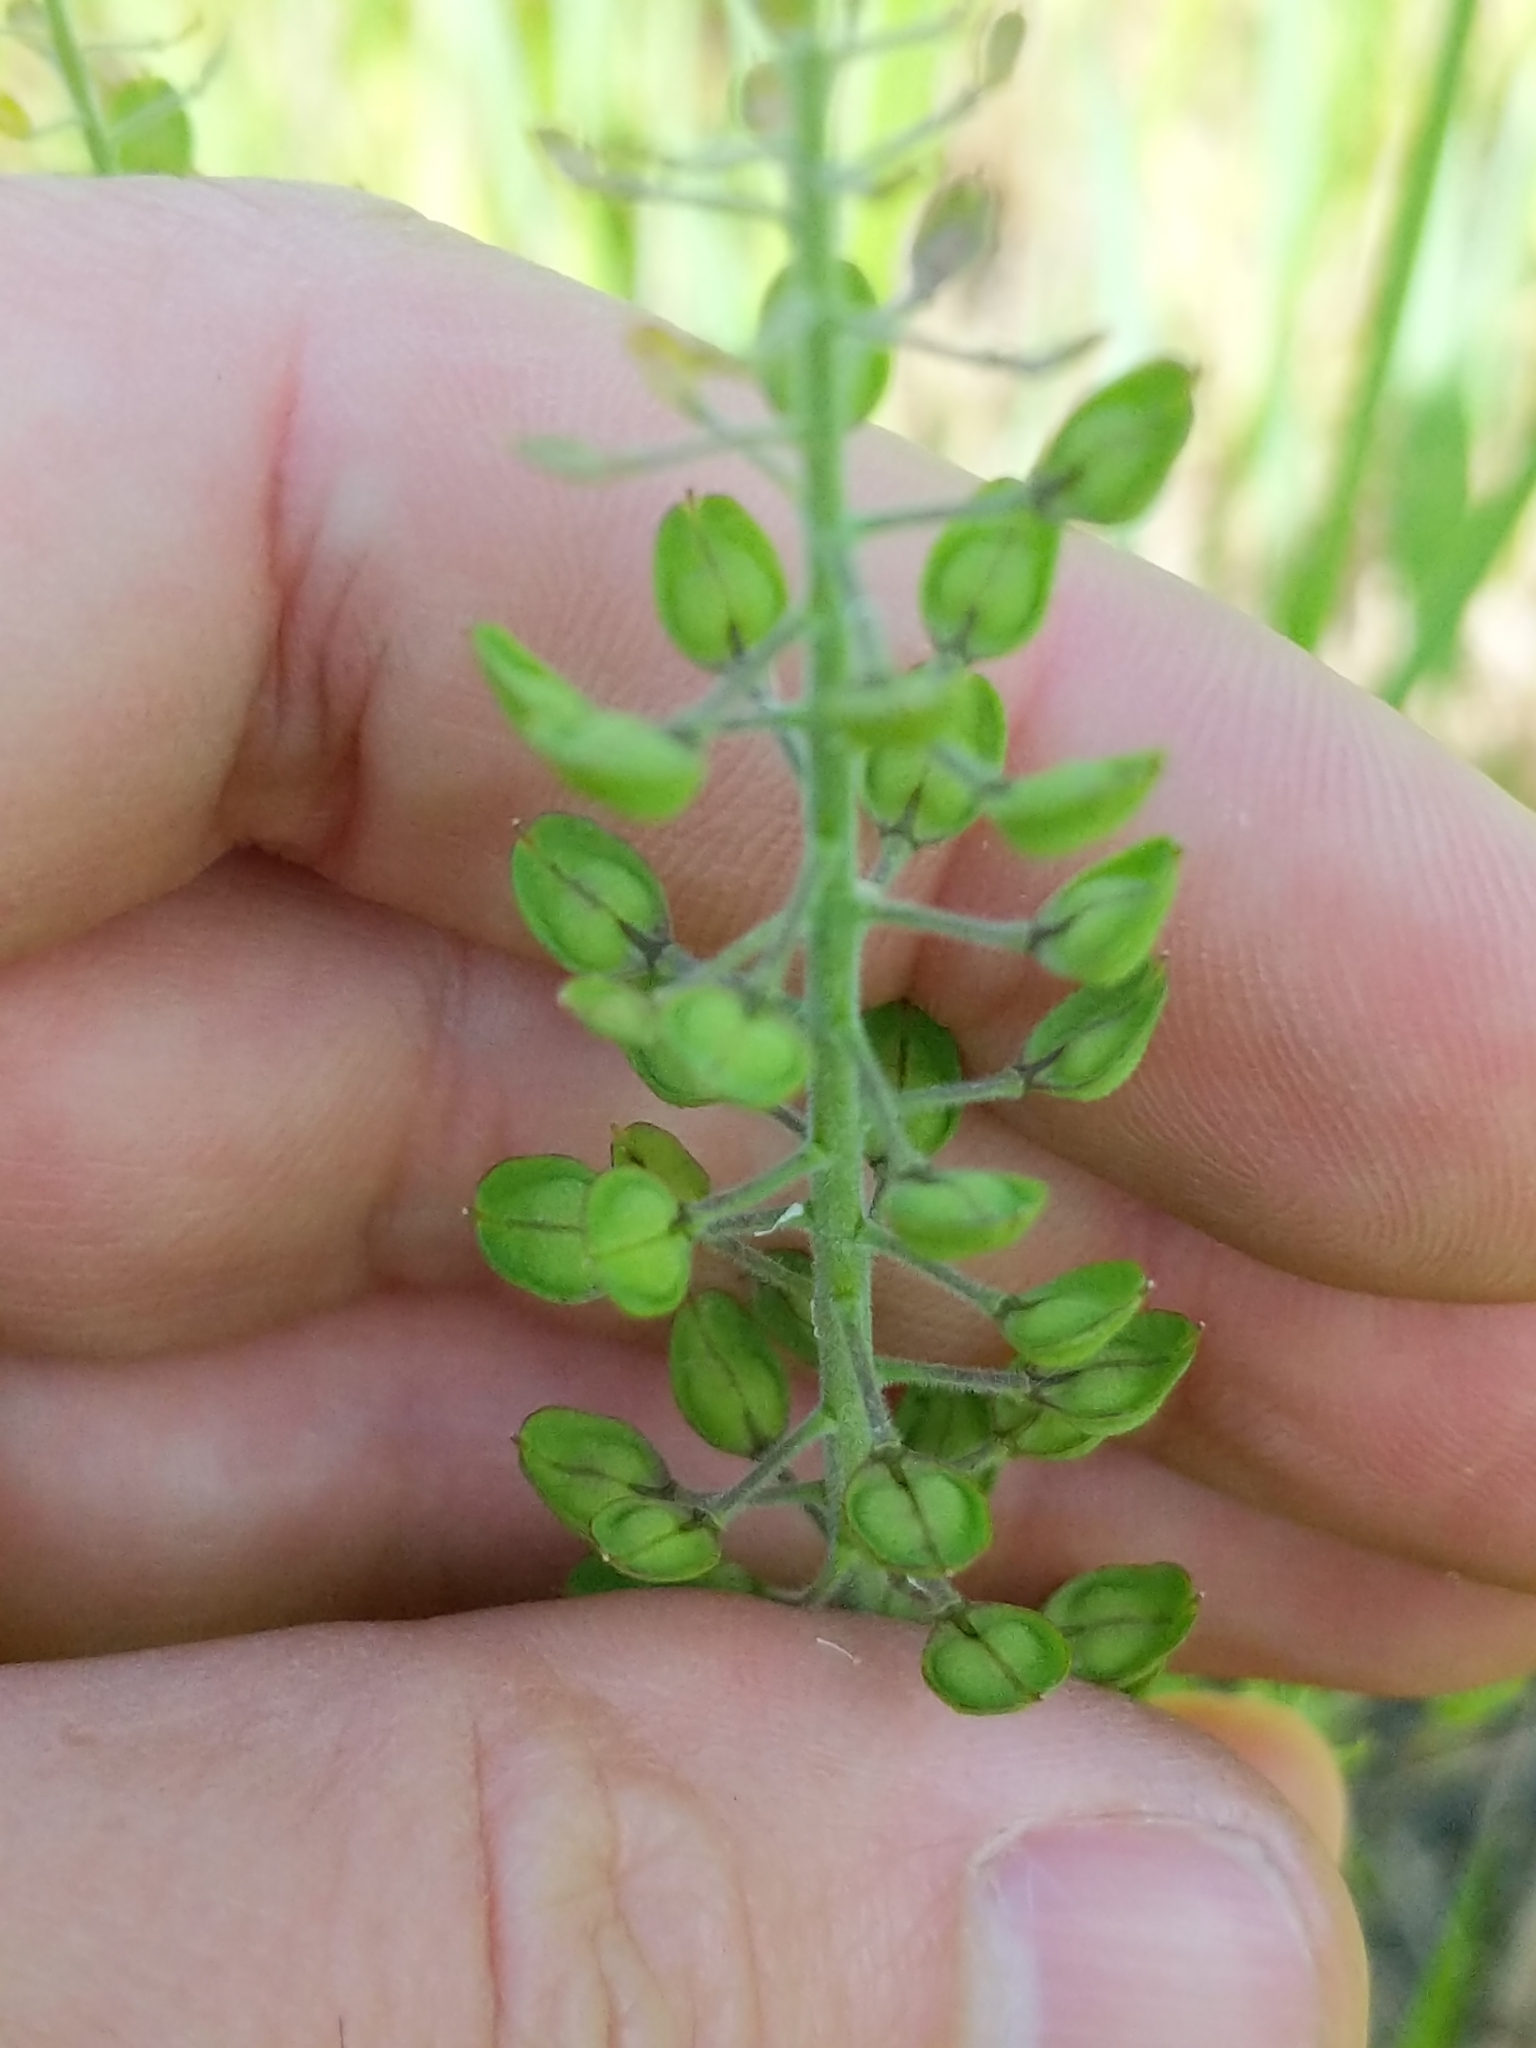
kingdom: Plantae
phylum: Tracheophyta
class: Magnoliopsida
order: Brassicales
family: Brassicaceae
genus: Lepidium
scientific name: Lepidium campestre
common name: Field pepperwort
